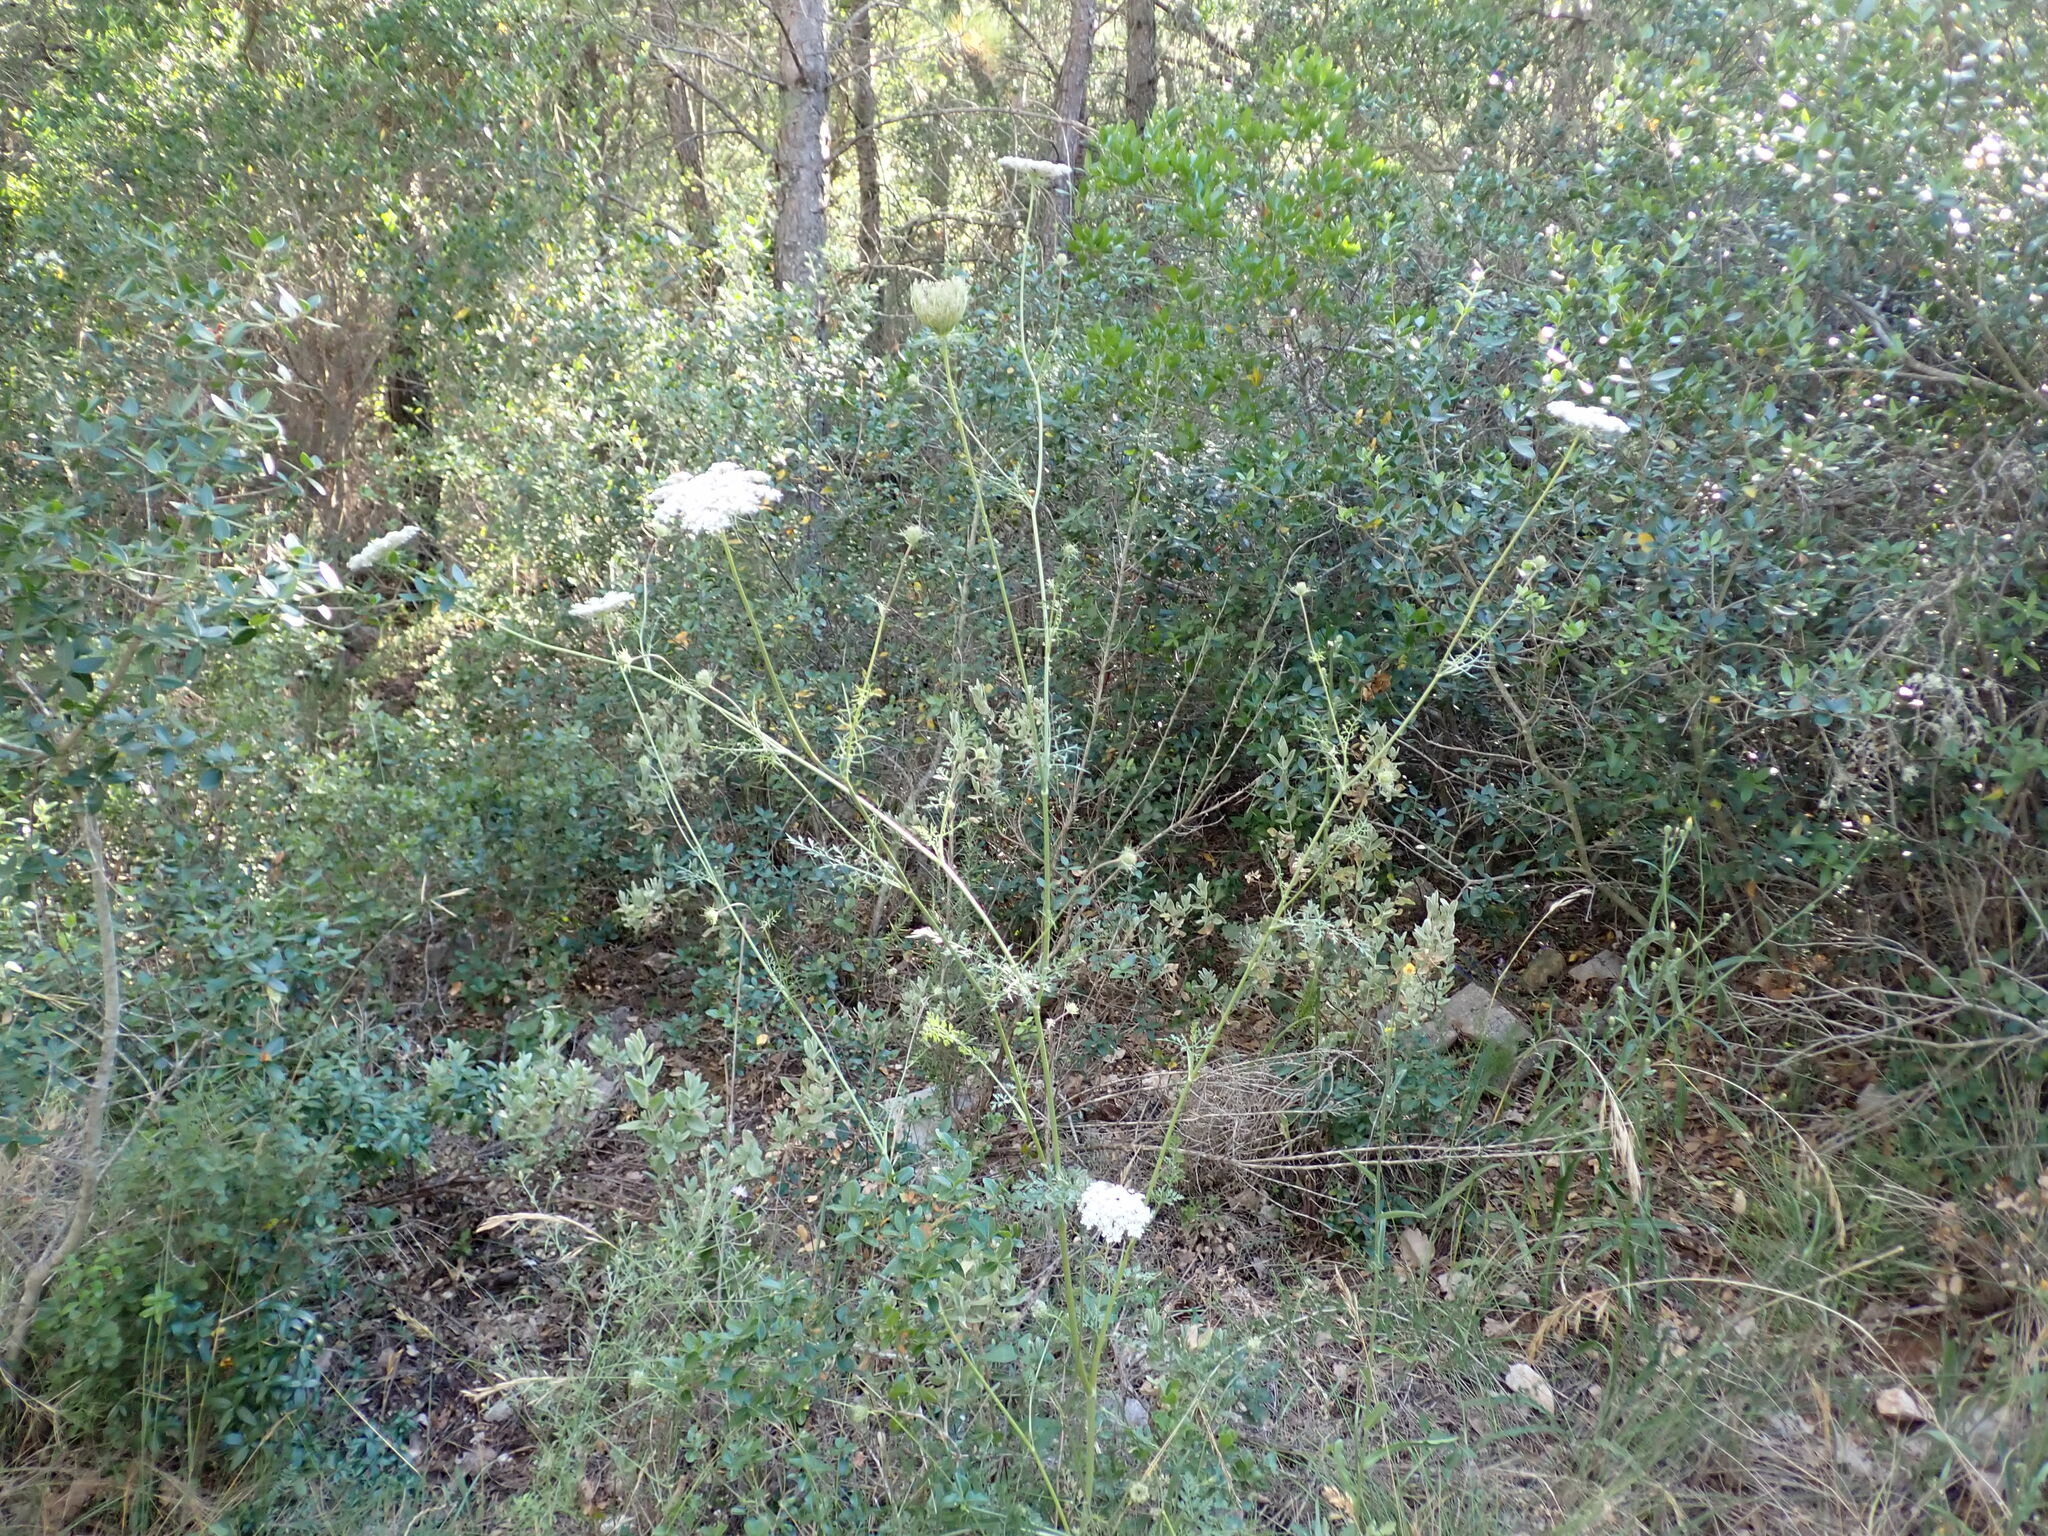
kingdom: Plantae
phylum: Tracheophyta
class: Magnoliopsida
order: Apiales
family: Apiaceae
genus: Daucus
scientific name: Daucus carota
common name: Wild carrot
